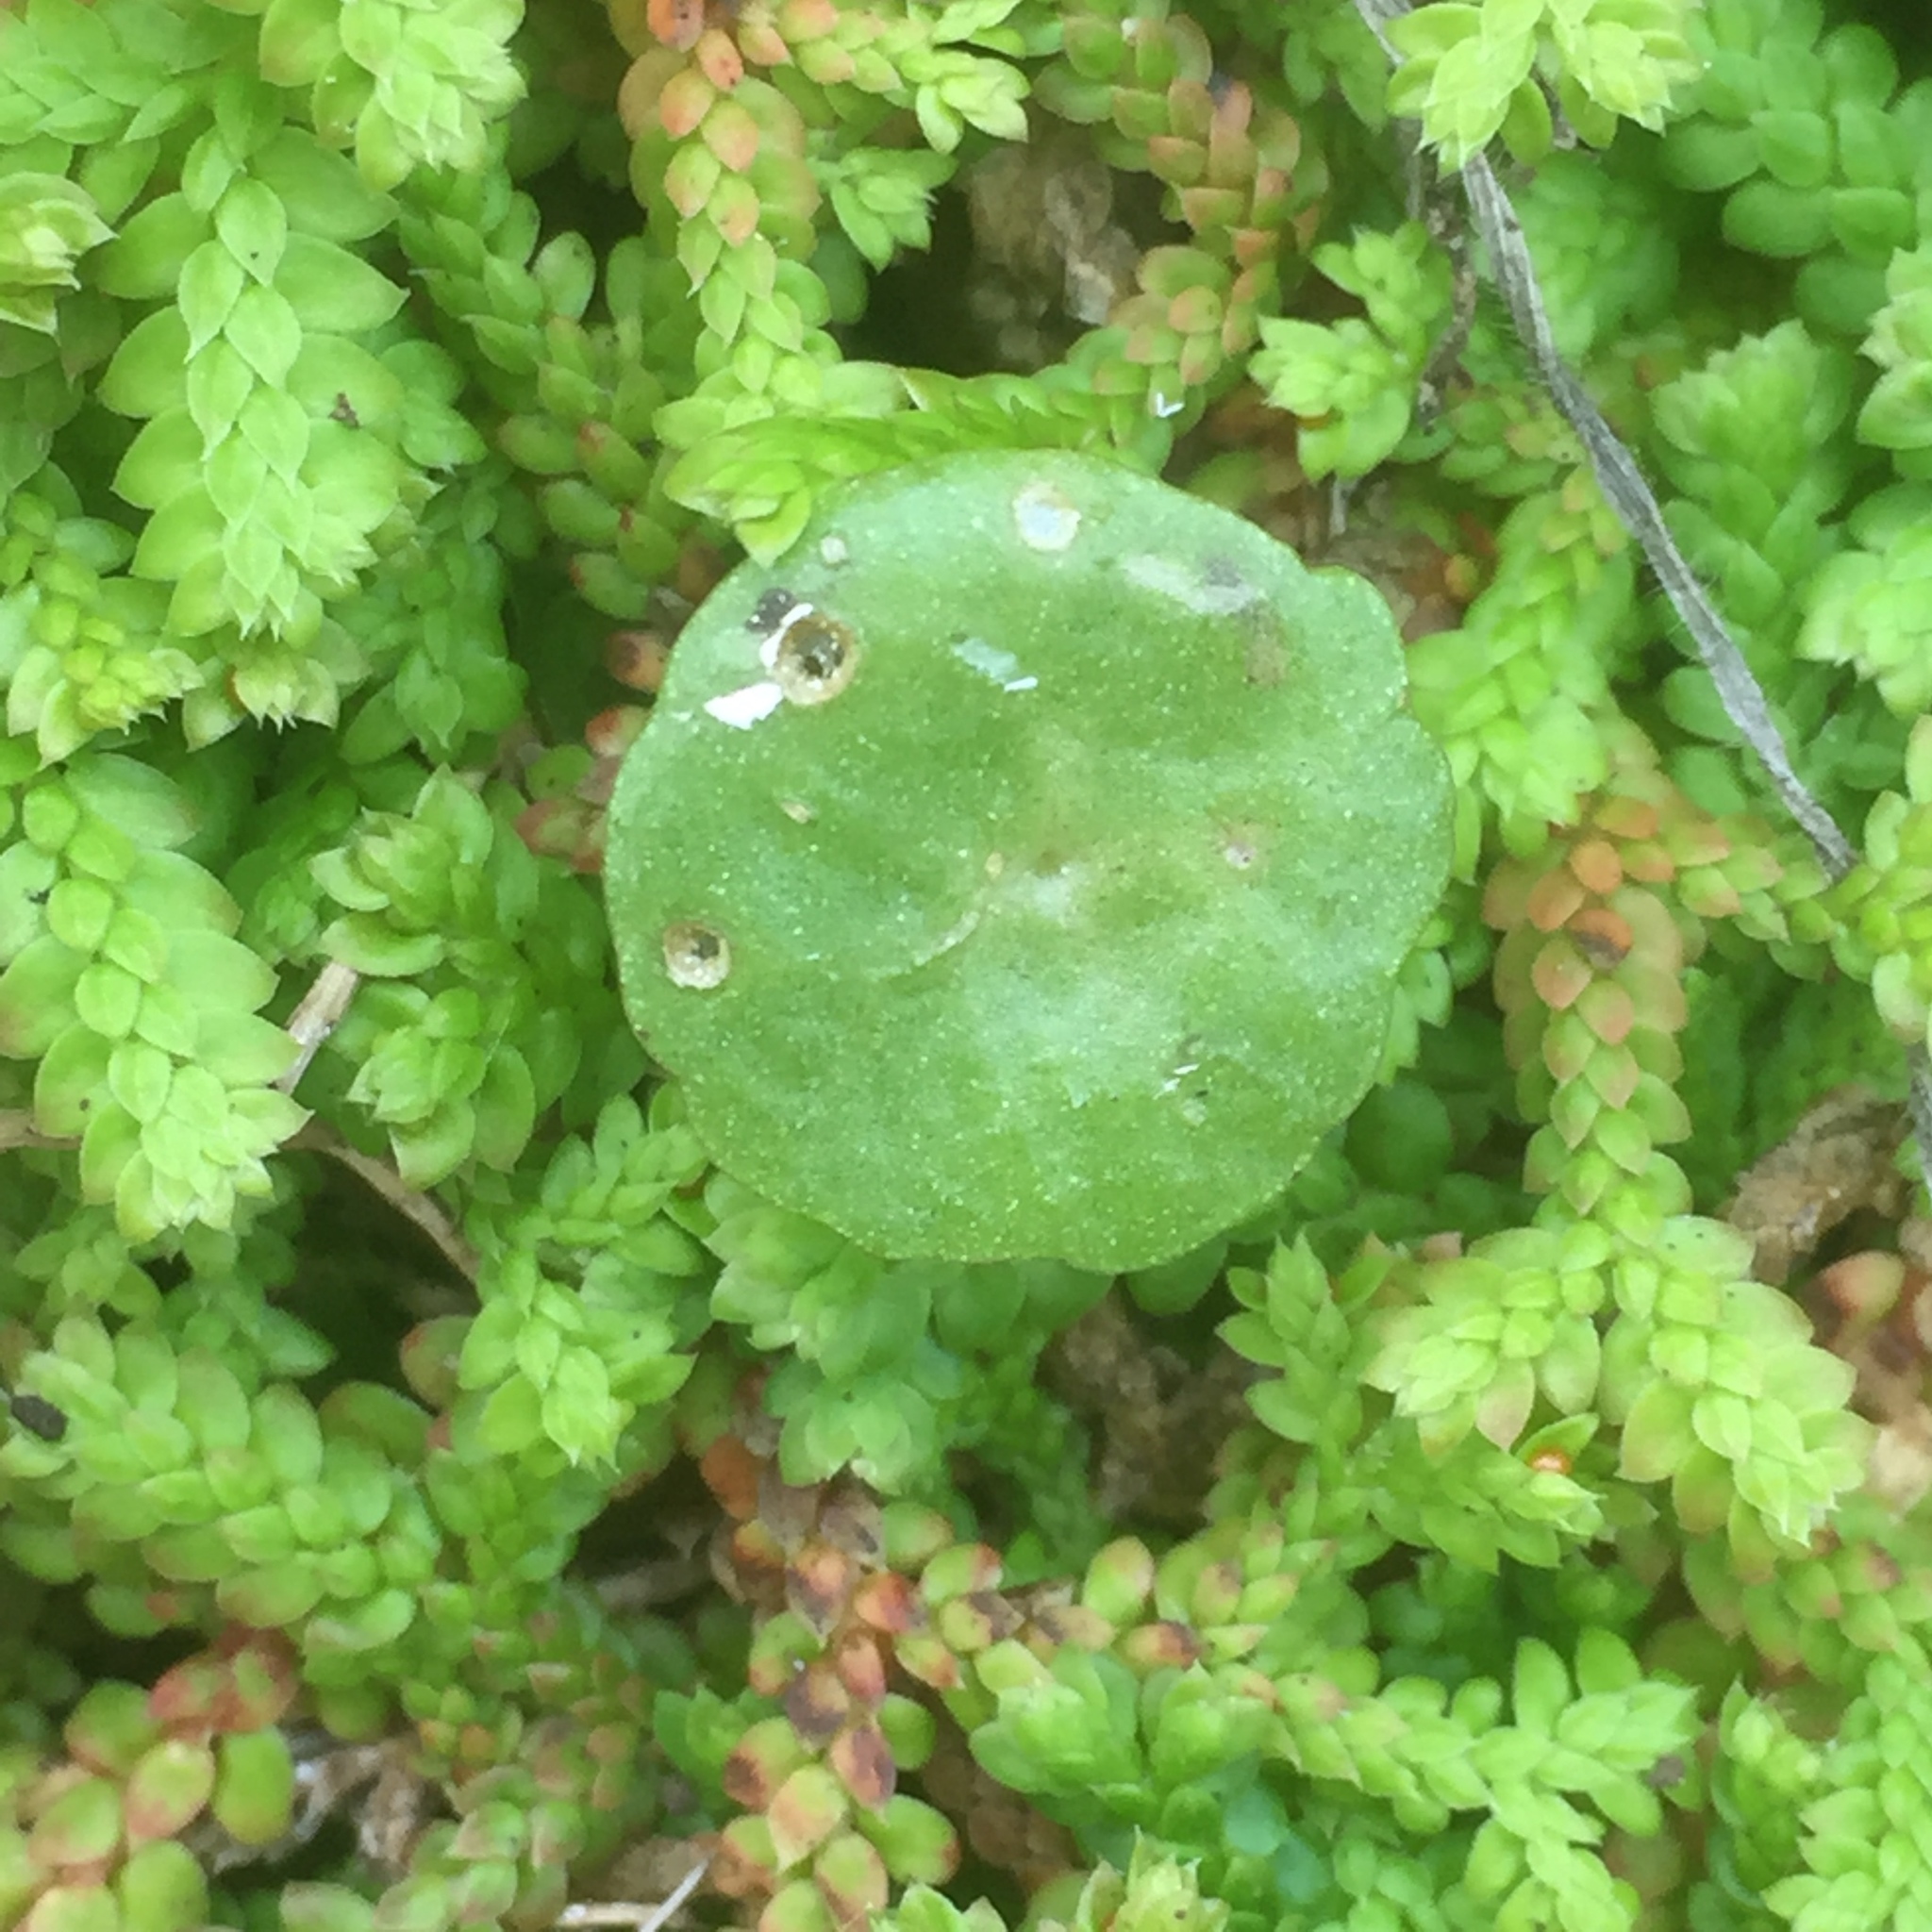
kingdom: Plantae
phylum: Tracheophyta
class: Lycopodiopsida
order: Selaginellales
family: Selaginellaceae
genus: Selaginella
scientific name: Selaginella denticulata
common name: Toothed-leaved clubmoss
